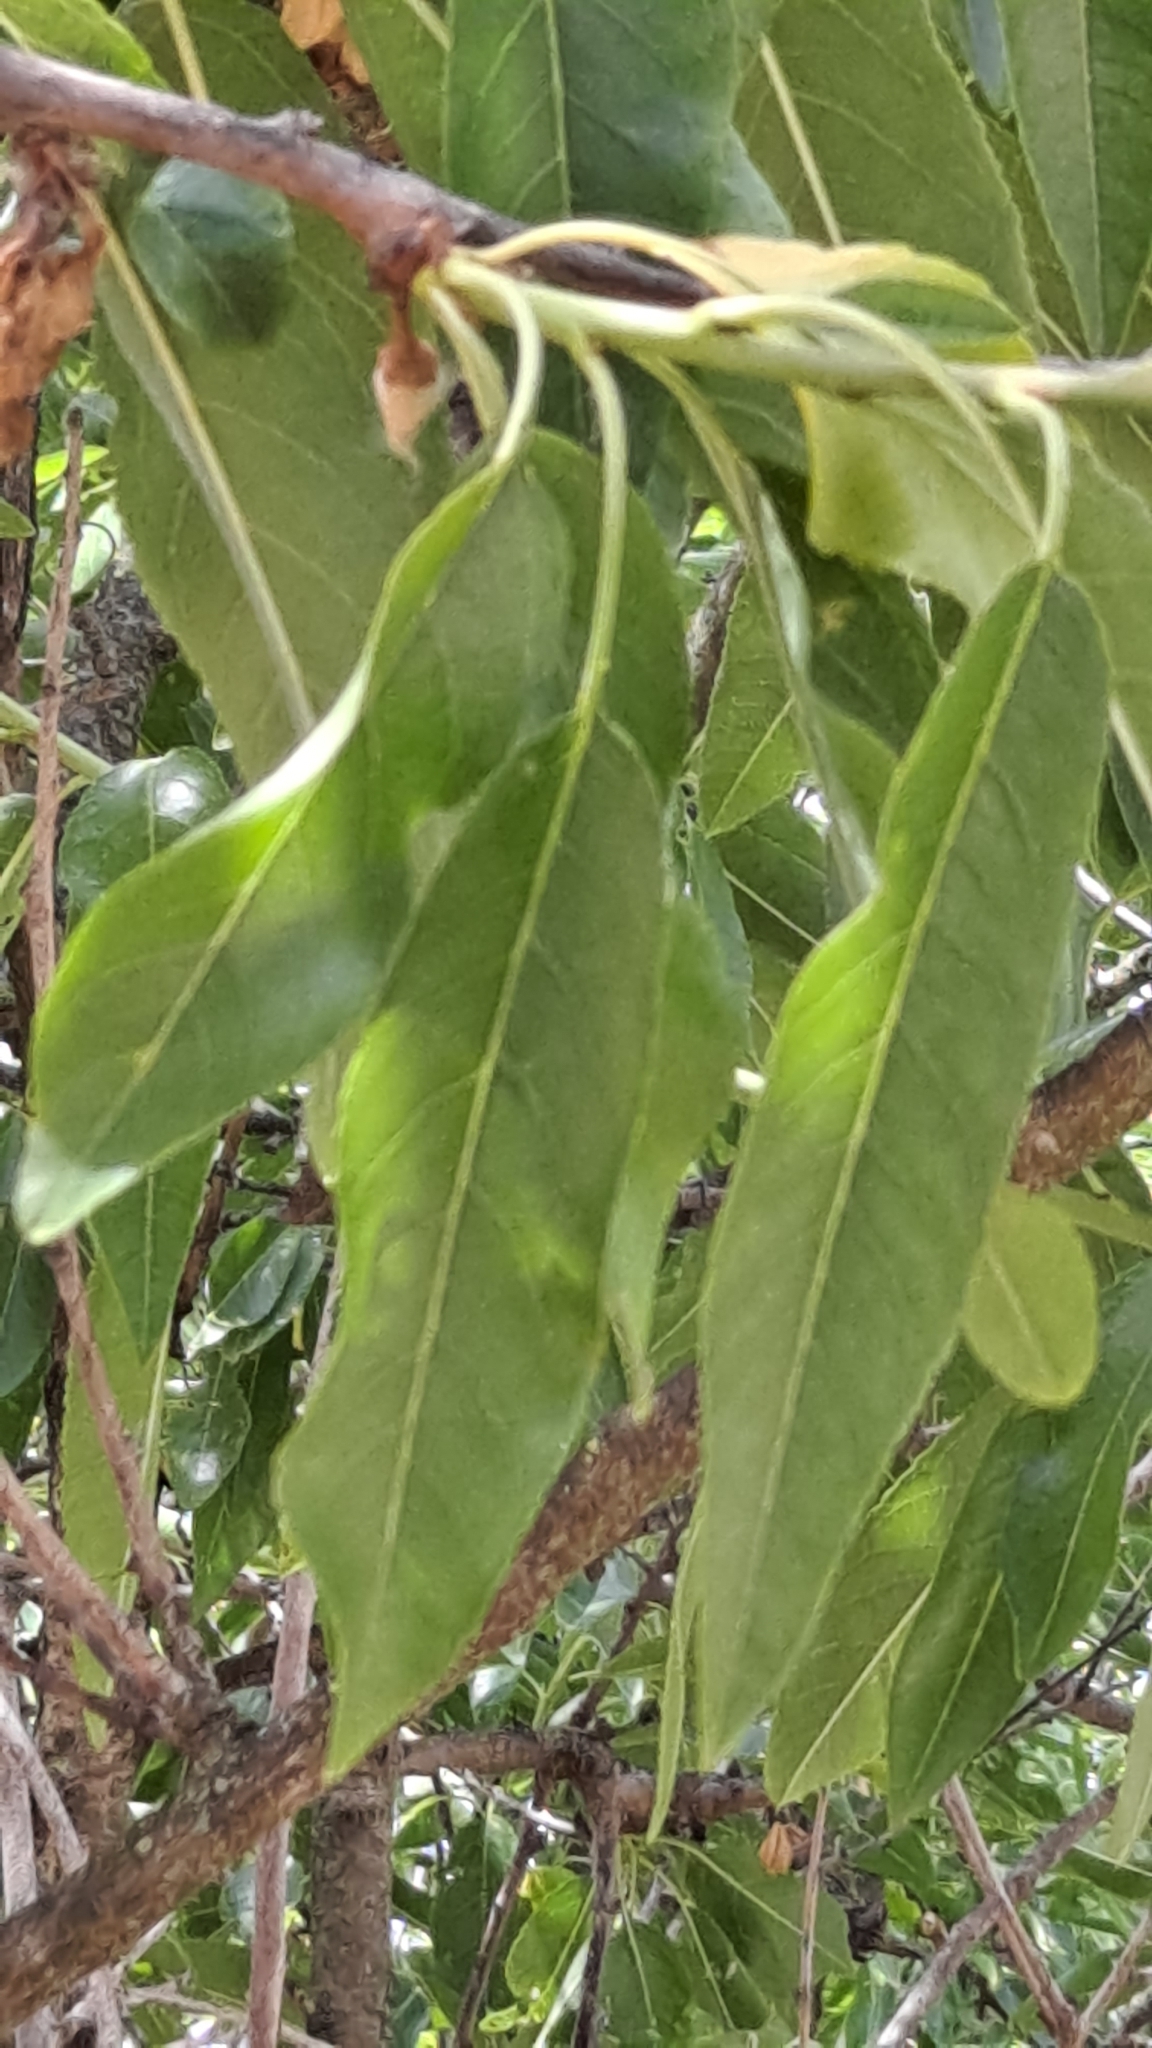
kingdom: Plantae
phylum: Tracheophyta
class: Magnoliopsida
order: Rosales
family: Rosaceae
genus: Prunus
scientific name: Prunus amygdalus
